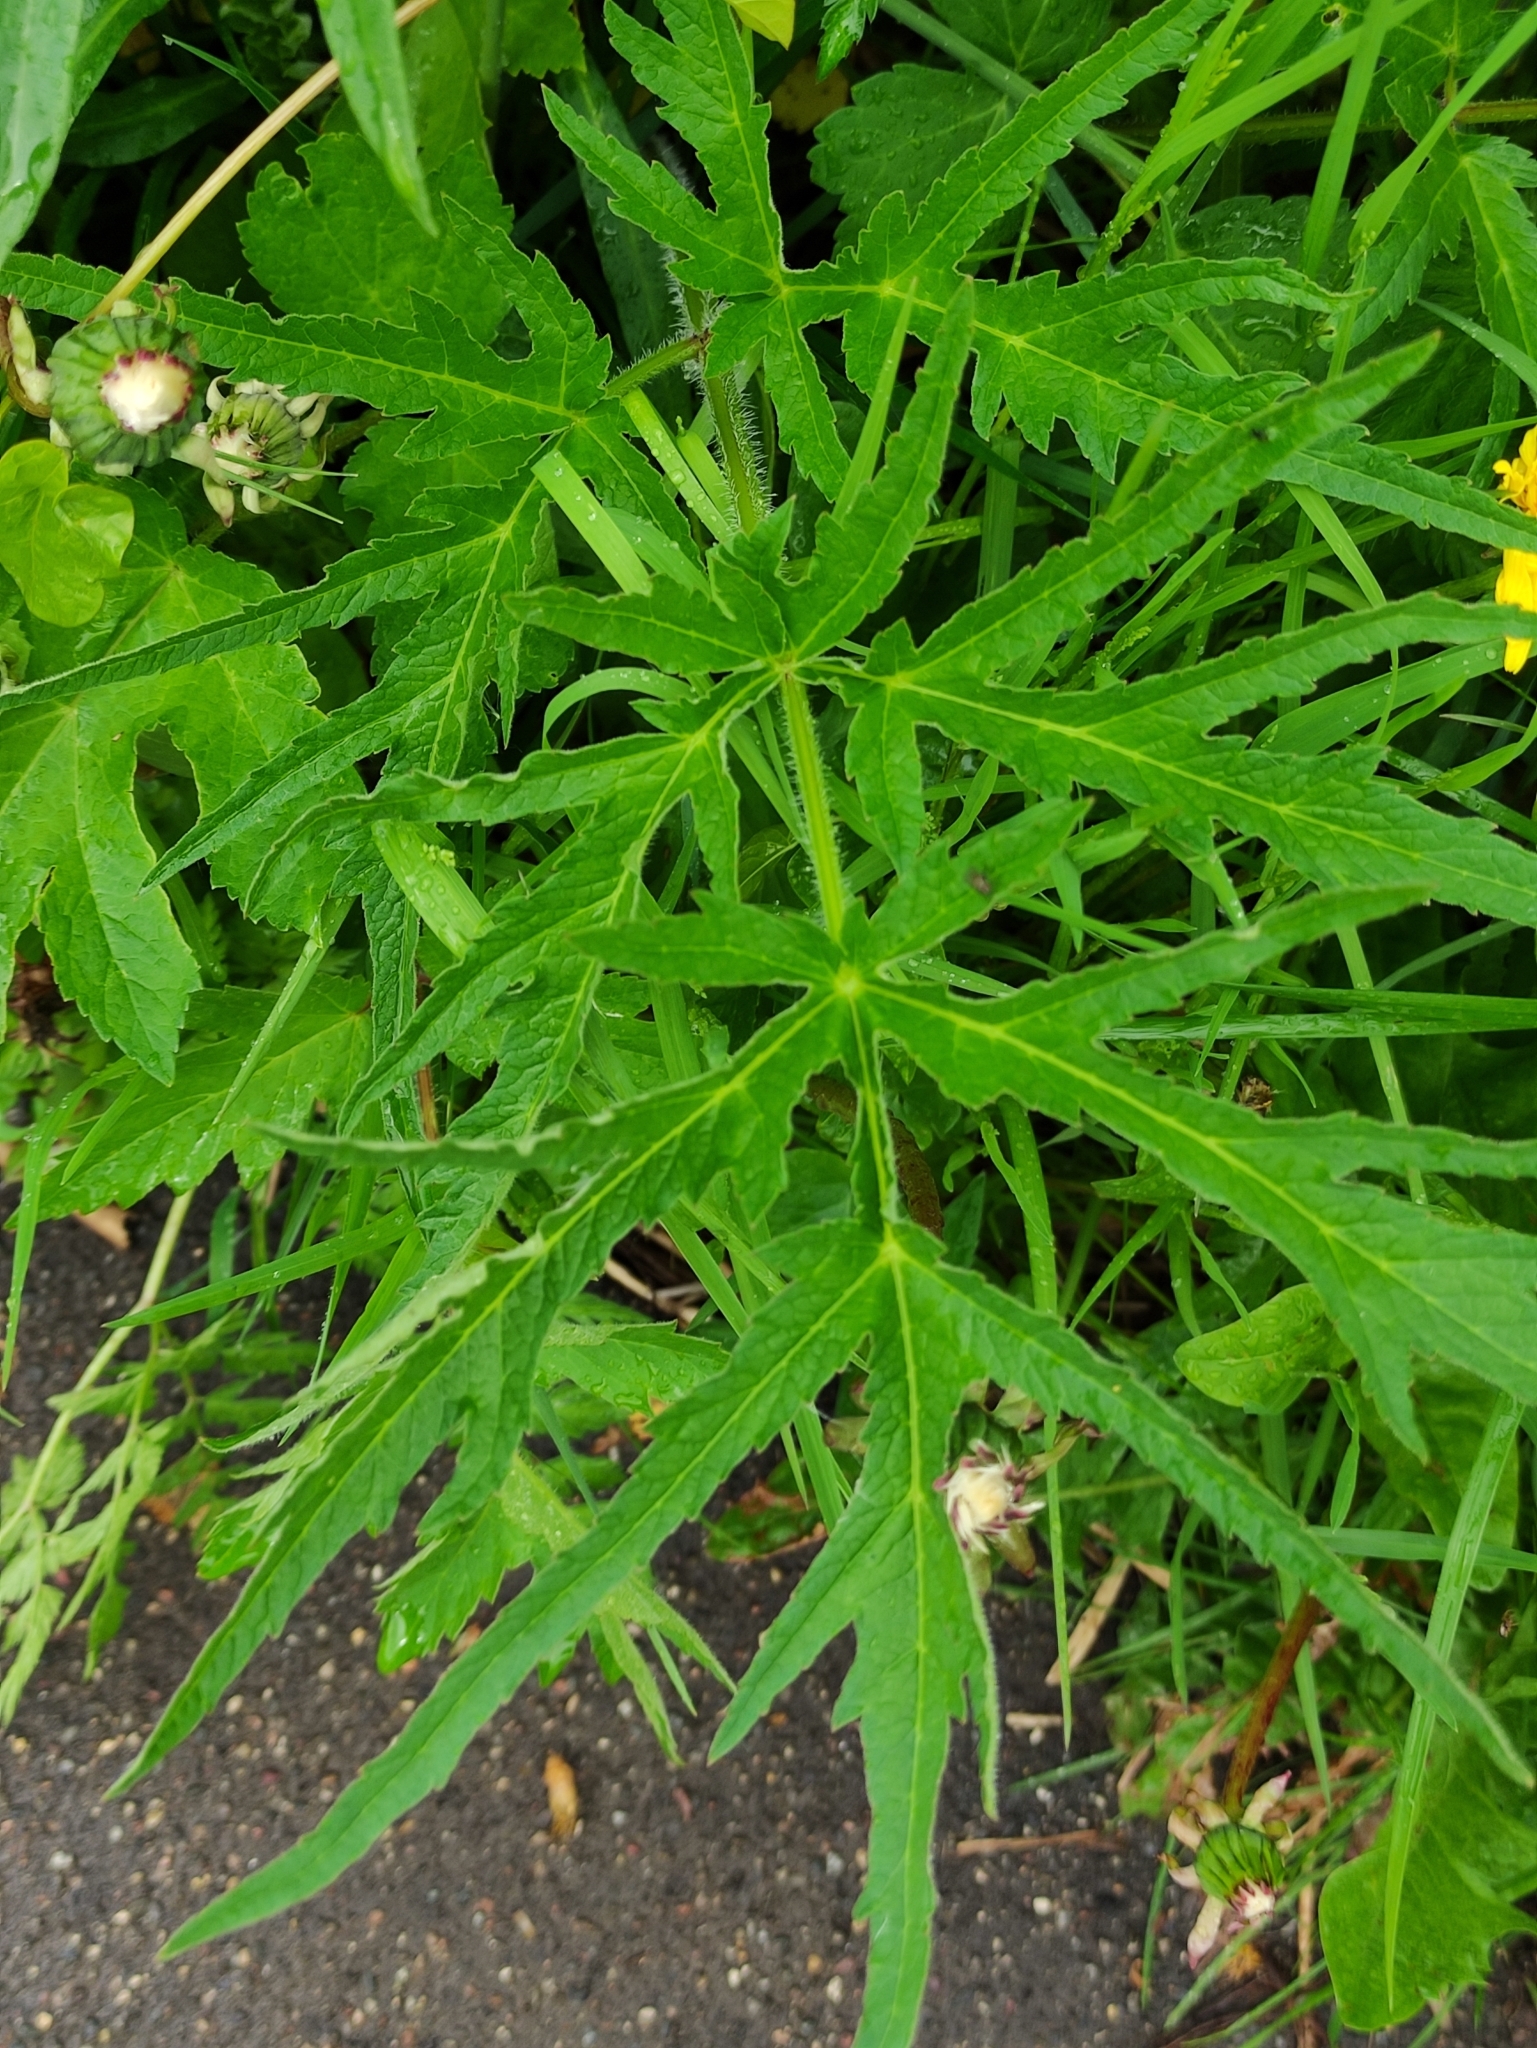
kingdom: Plantae
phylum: Tracheophyta
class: Magnoliopsida
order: Apiales
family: Apiaceae
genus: Heracleum
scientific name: Heracleum sphondylium
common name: Hogweed
